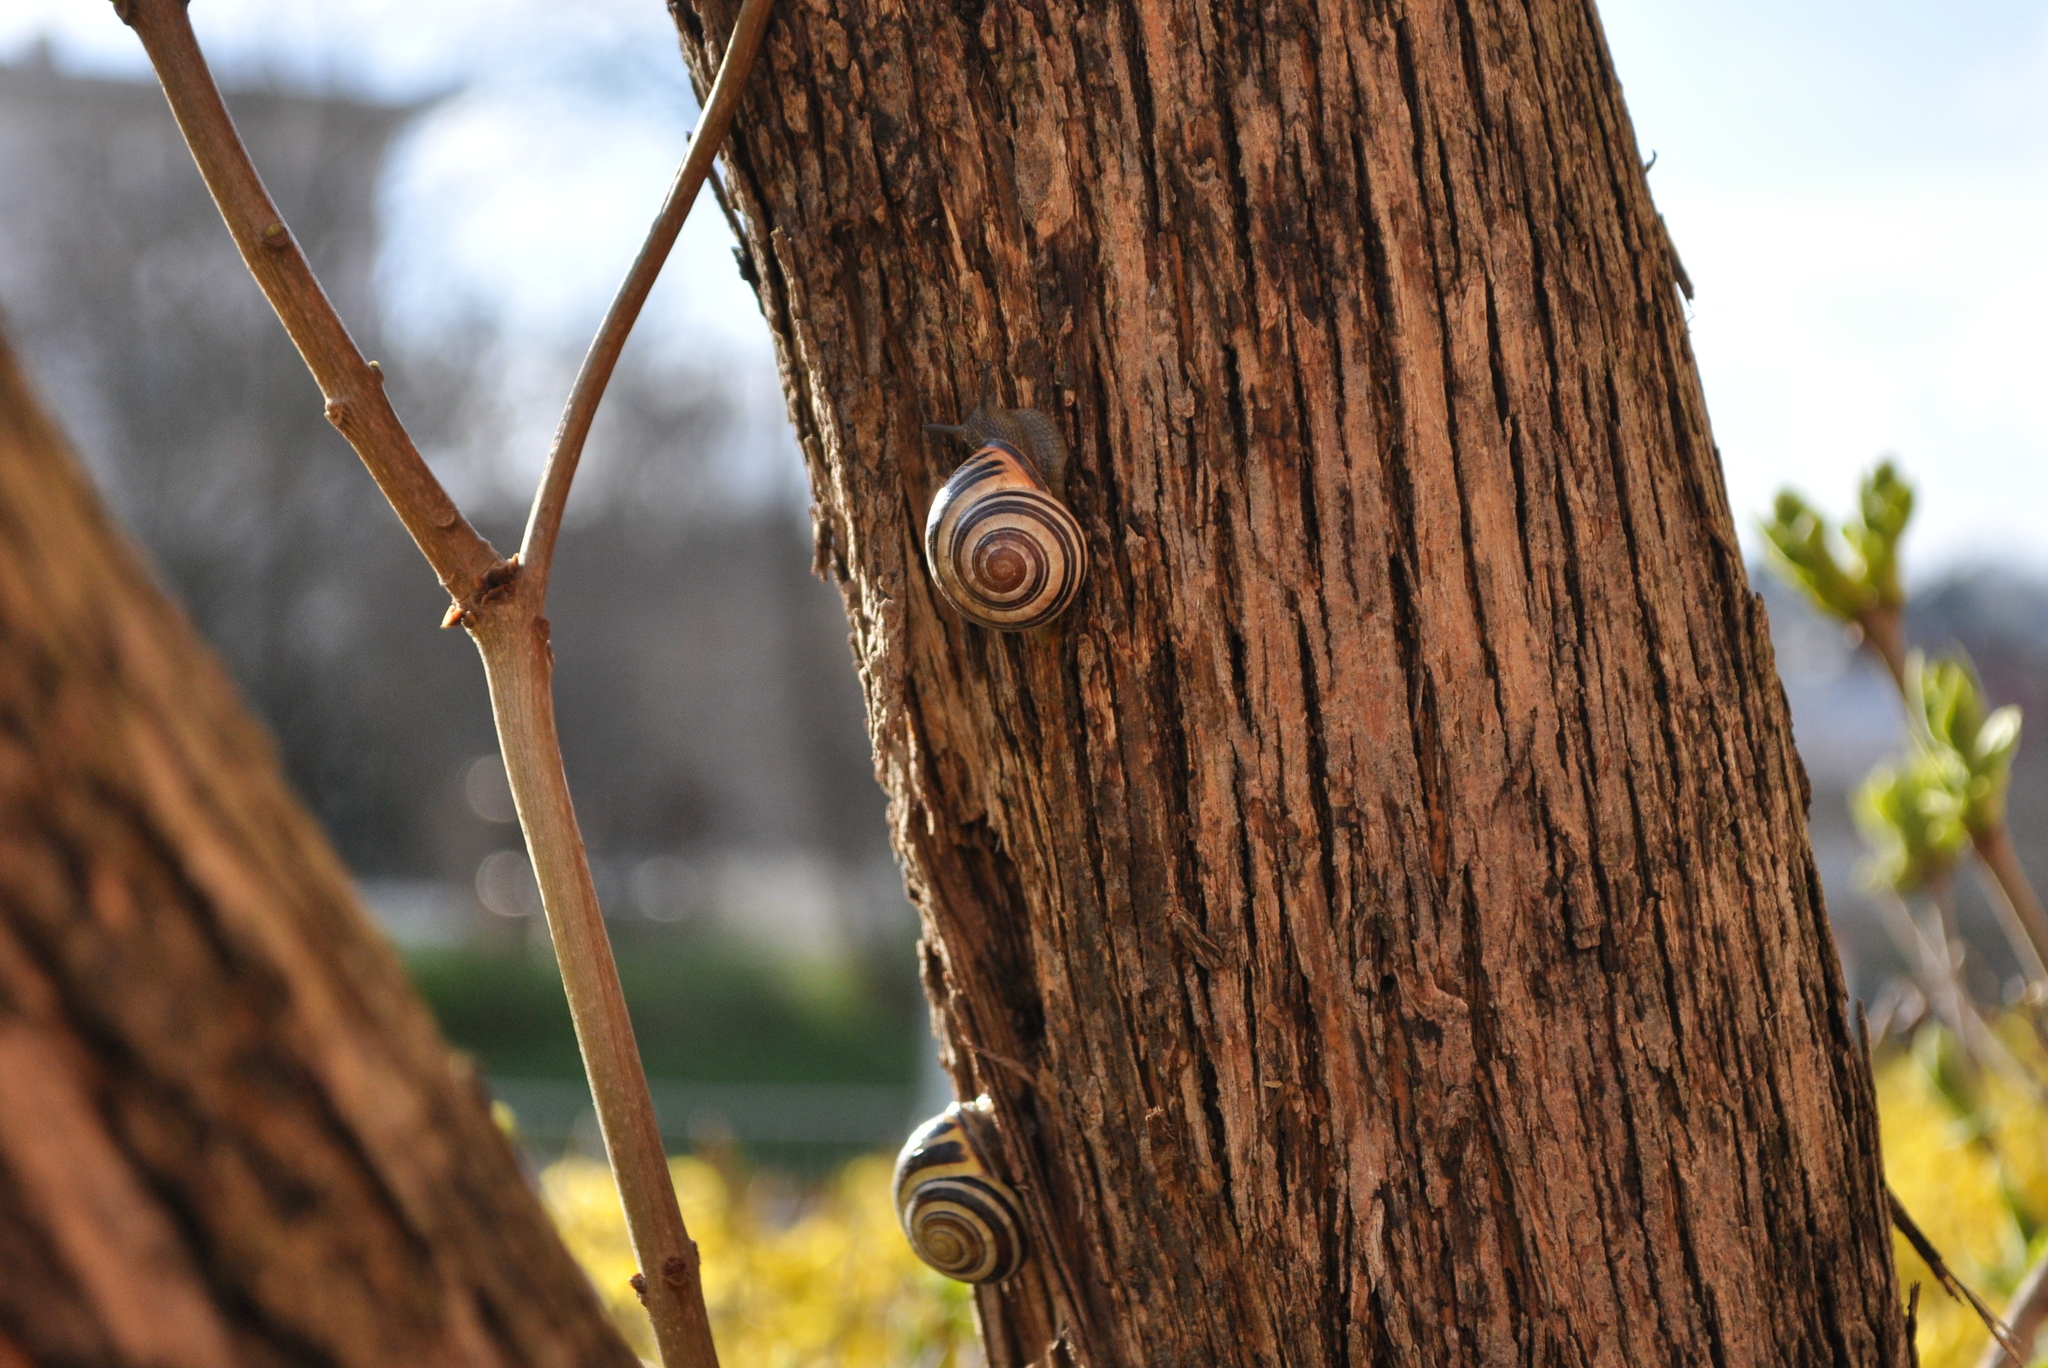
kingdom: Animalia
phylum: Mollusca
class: Gastropoda
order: Stylommatophora
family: Helicidae
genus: Cepaea
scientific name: Cepaea nemoralis
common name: Grovesnail
